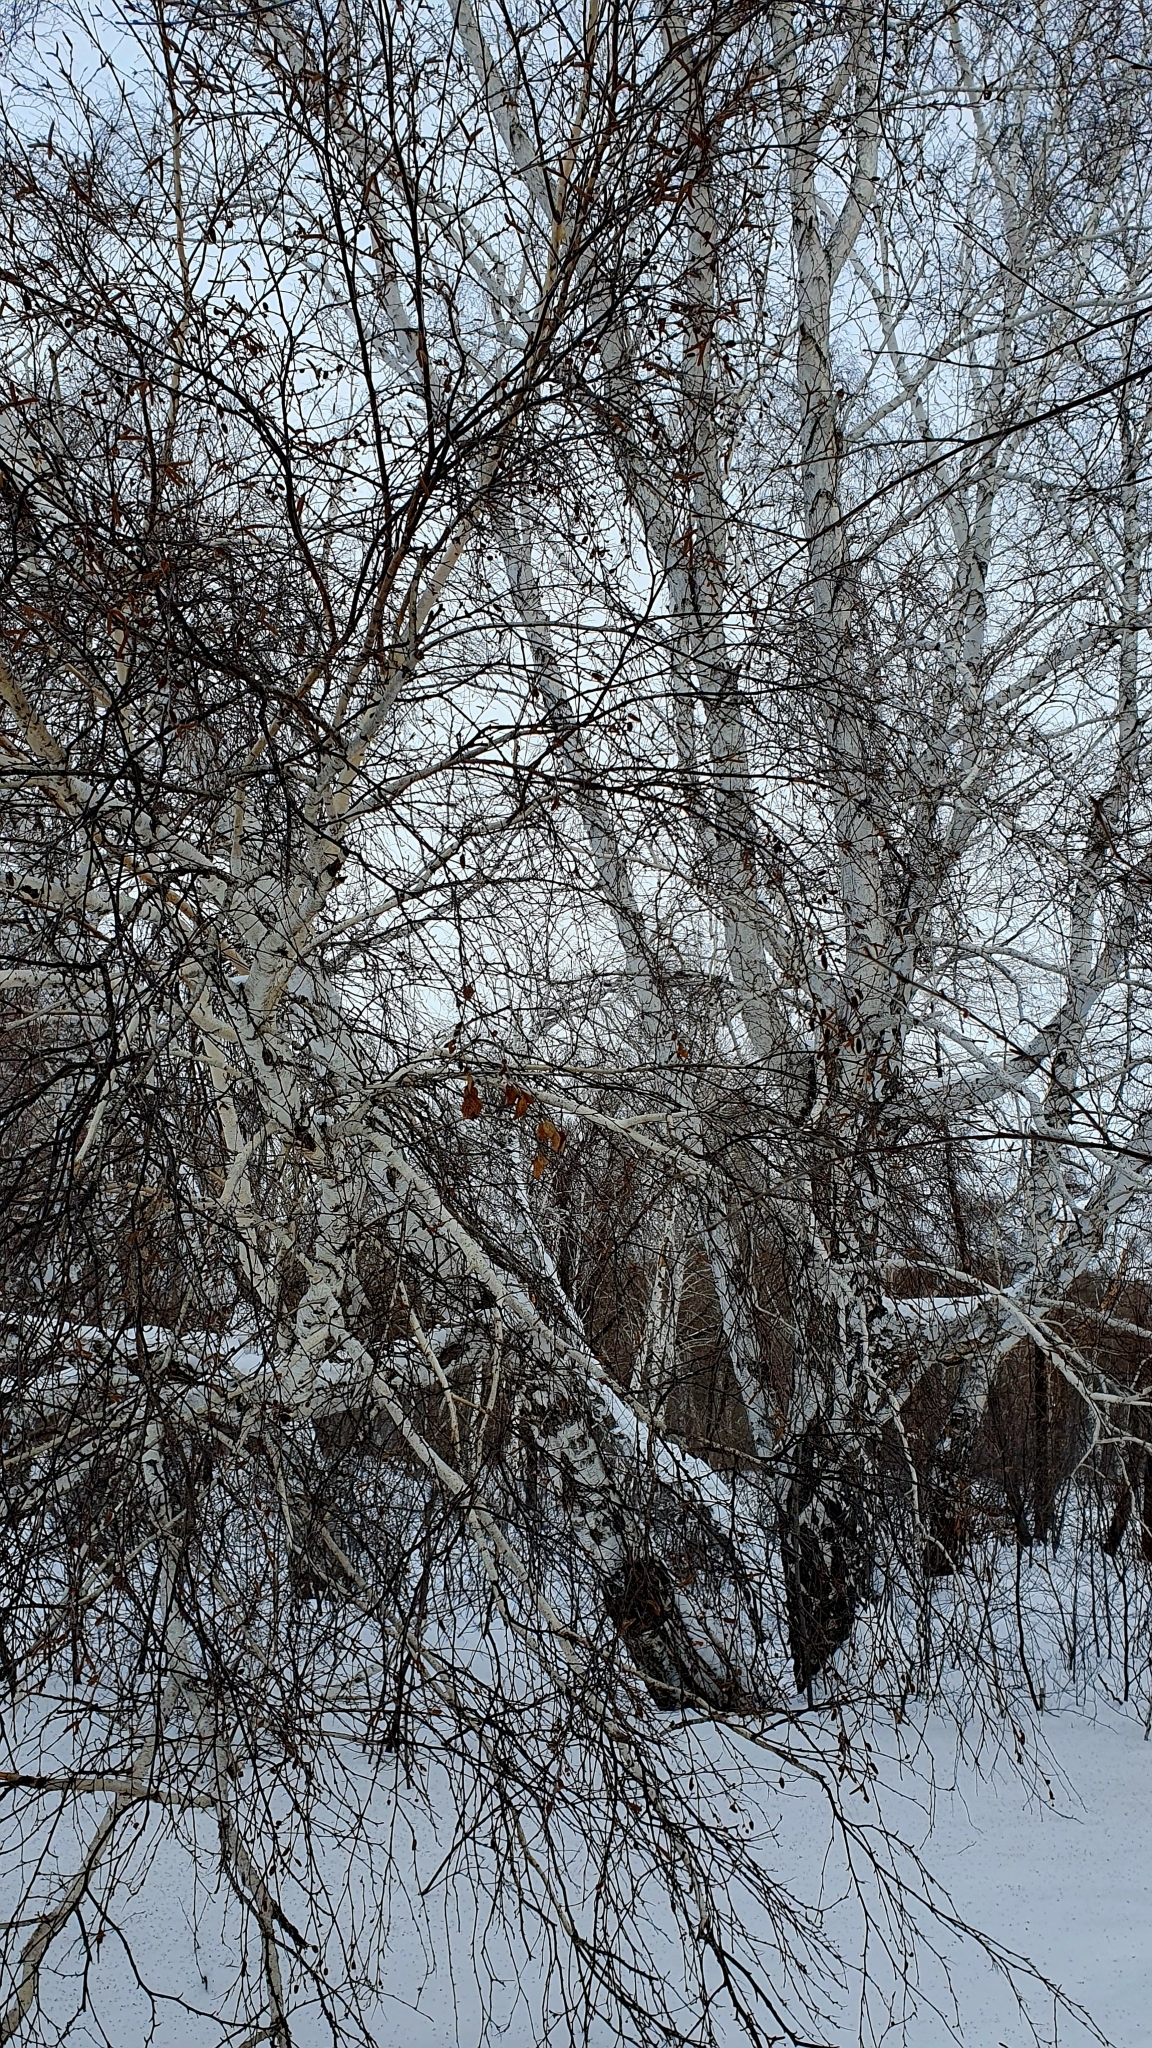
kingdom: Plantae
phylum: Tracheophyta
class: Magnoliopsida
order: Fagales
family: Betulaceae
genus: Betula
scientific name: Betula pendula
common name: Silver birch
